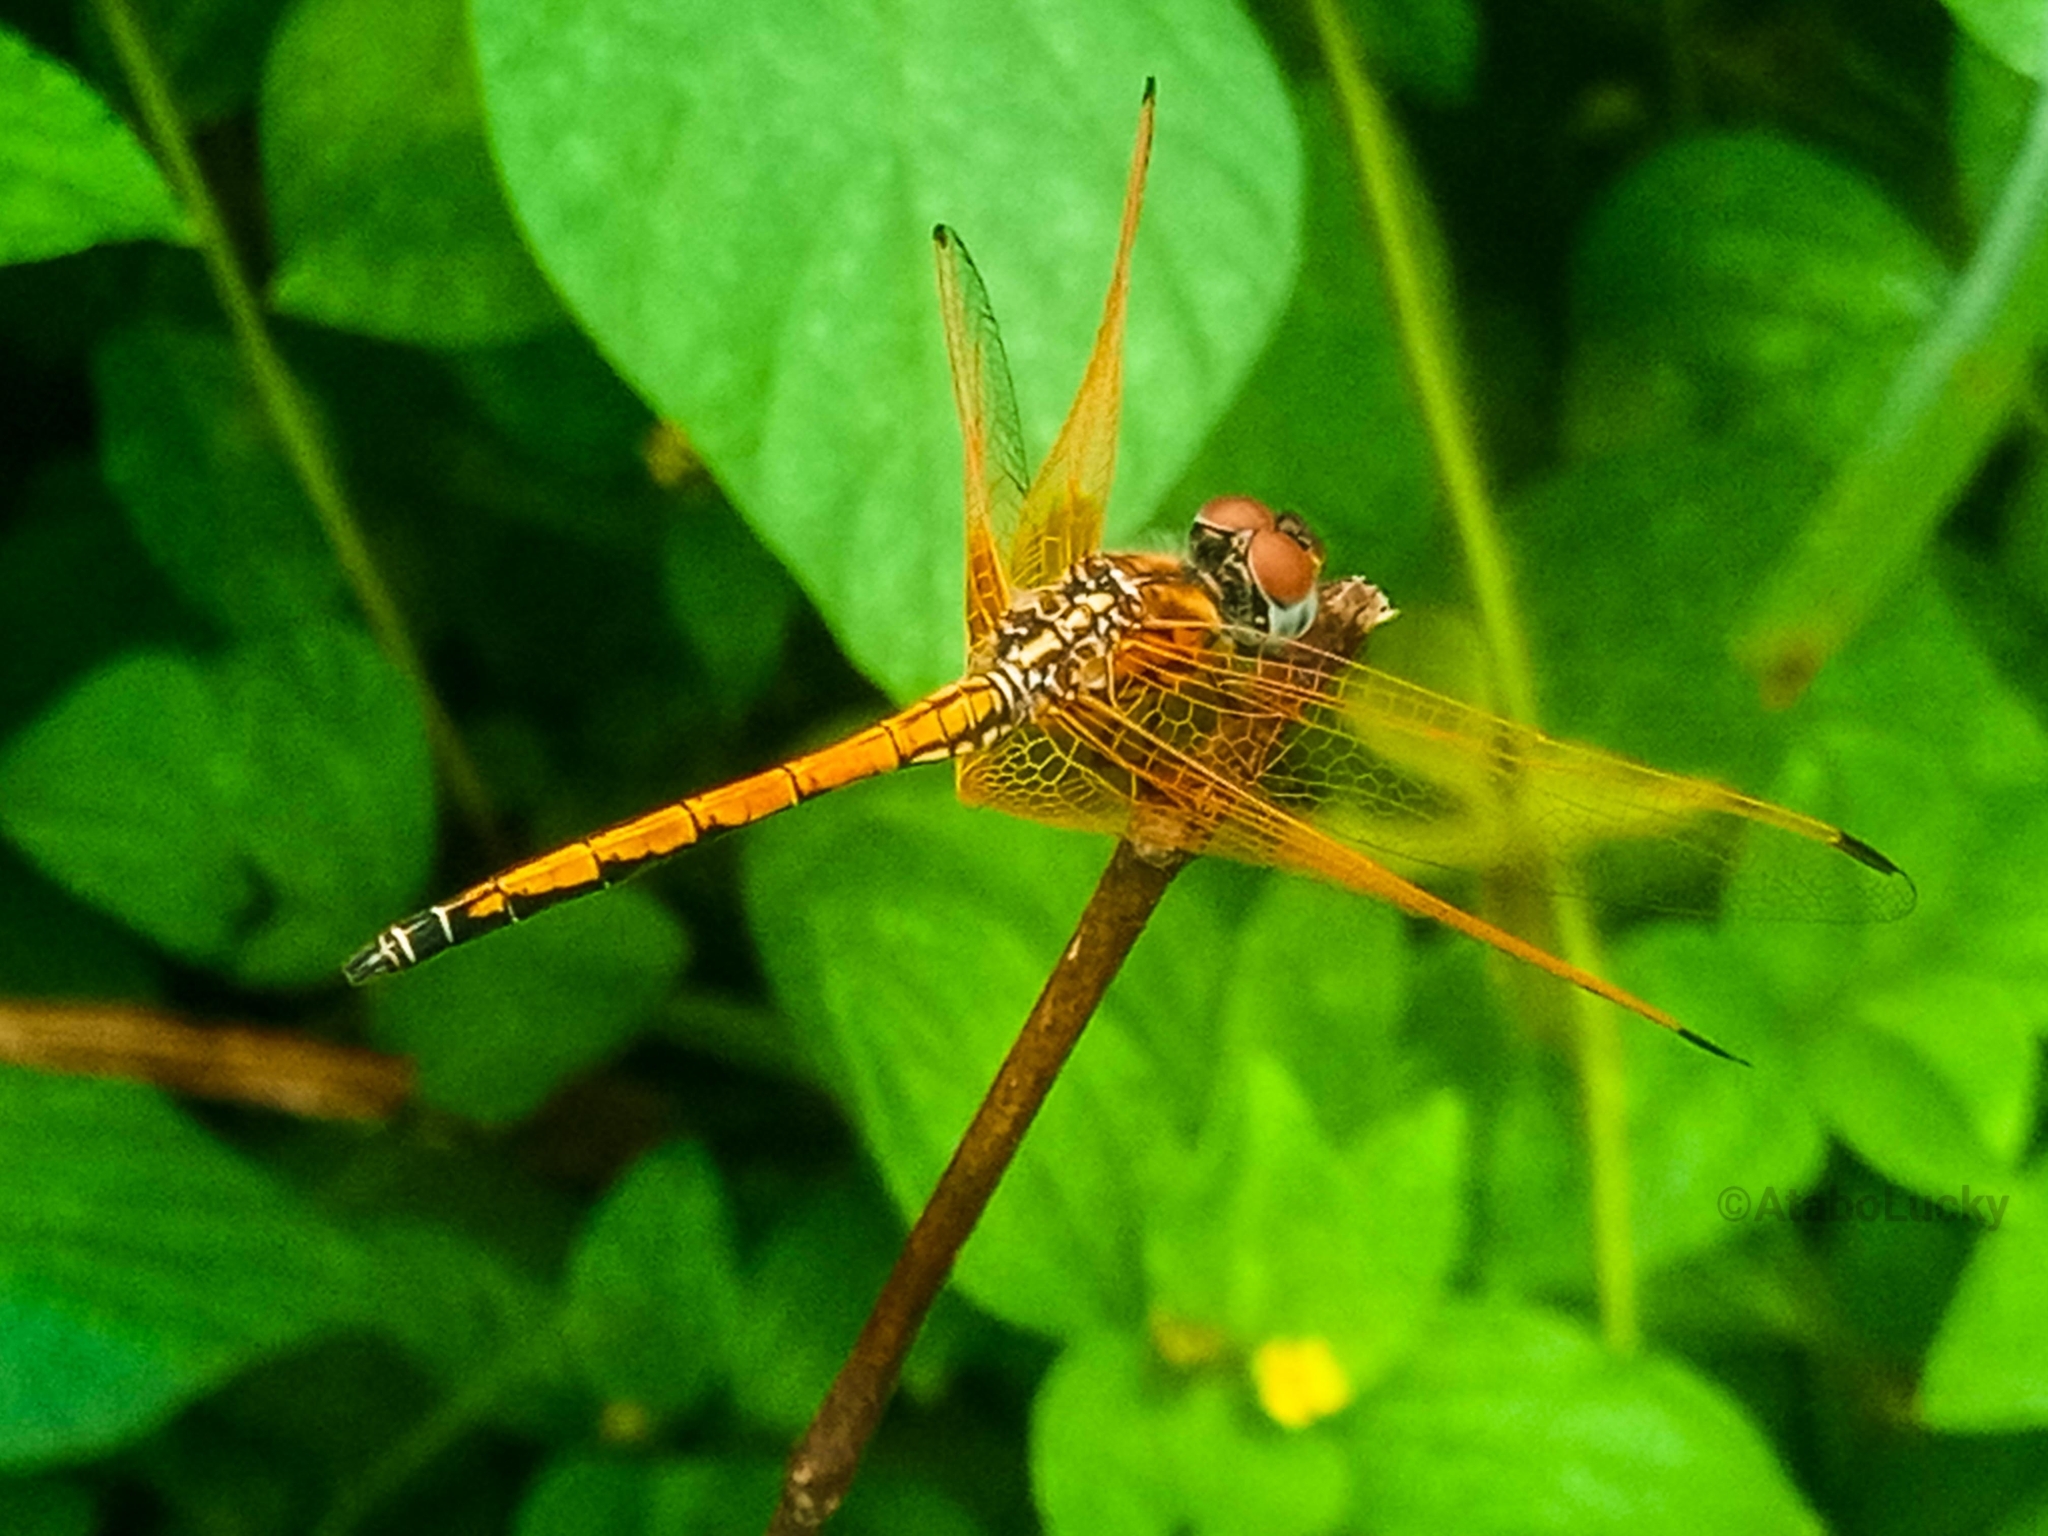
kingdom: Animalia
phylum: Arthropoda
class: Insecta
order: Odonata
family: Libellulidae
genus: Trithemis
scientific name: Trithemis arteriosa
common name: Red-veined dropwing
